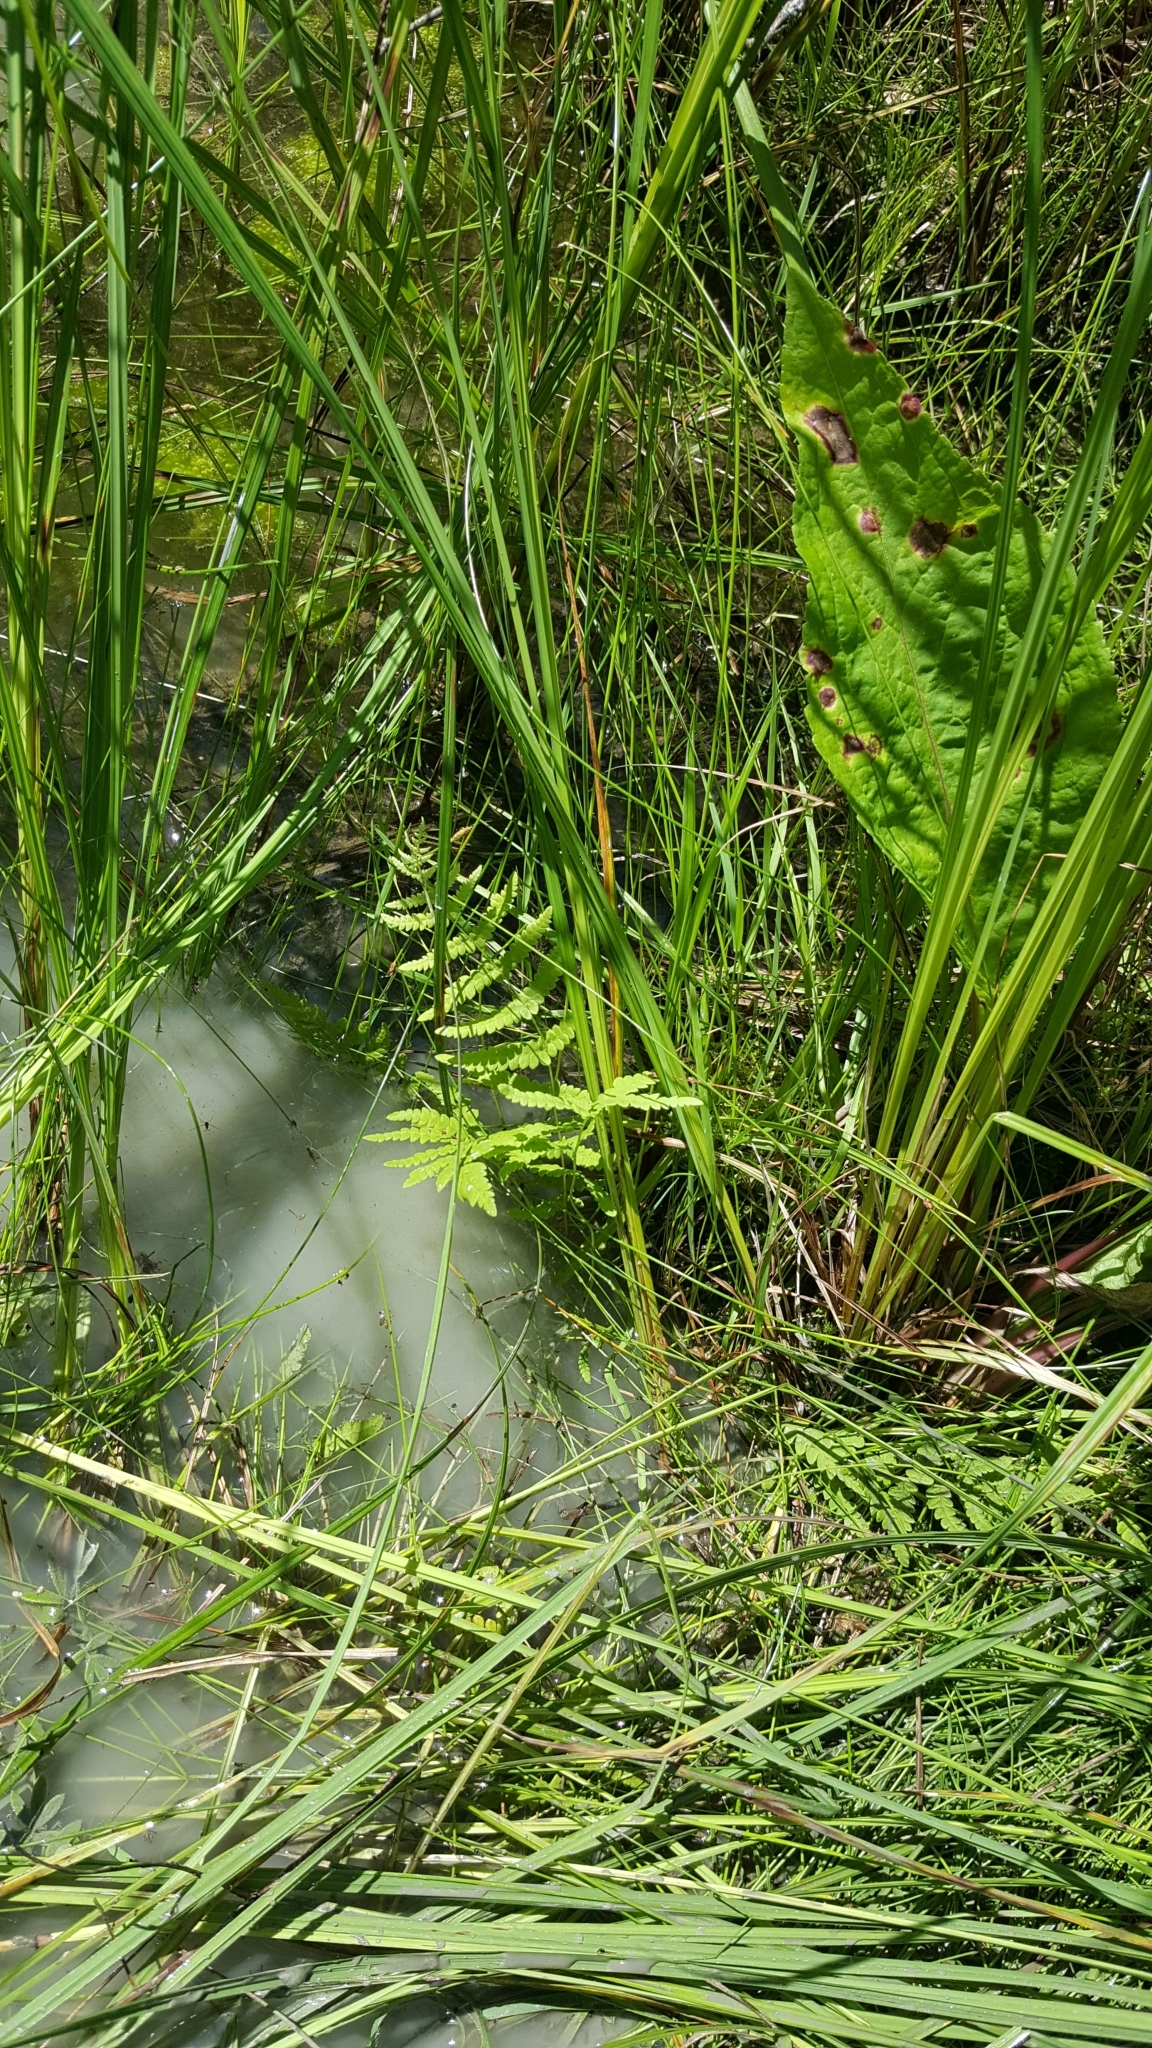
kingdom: Plantae
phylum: Tracheophyta
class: Polypodiopsida
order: Polypodiales
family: Thelypteridaceae
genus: Thelypteris
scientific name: Thelypteris palustris
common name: Marsh fern
